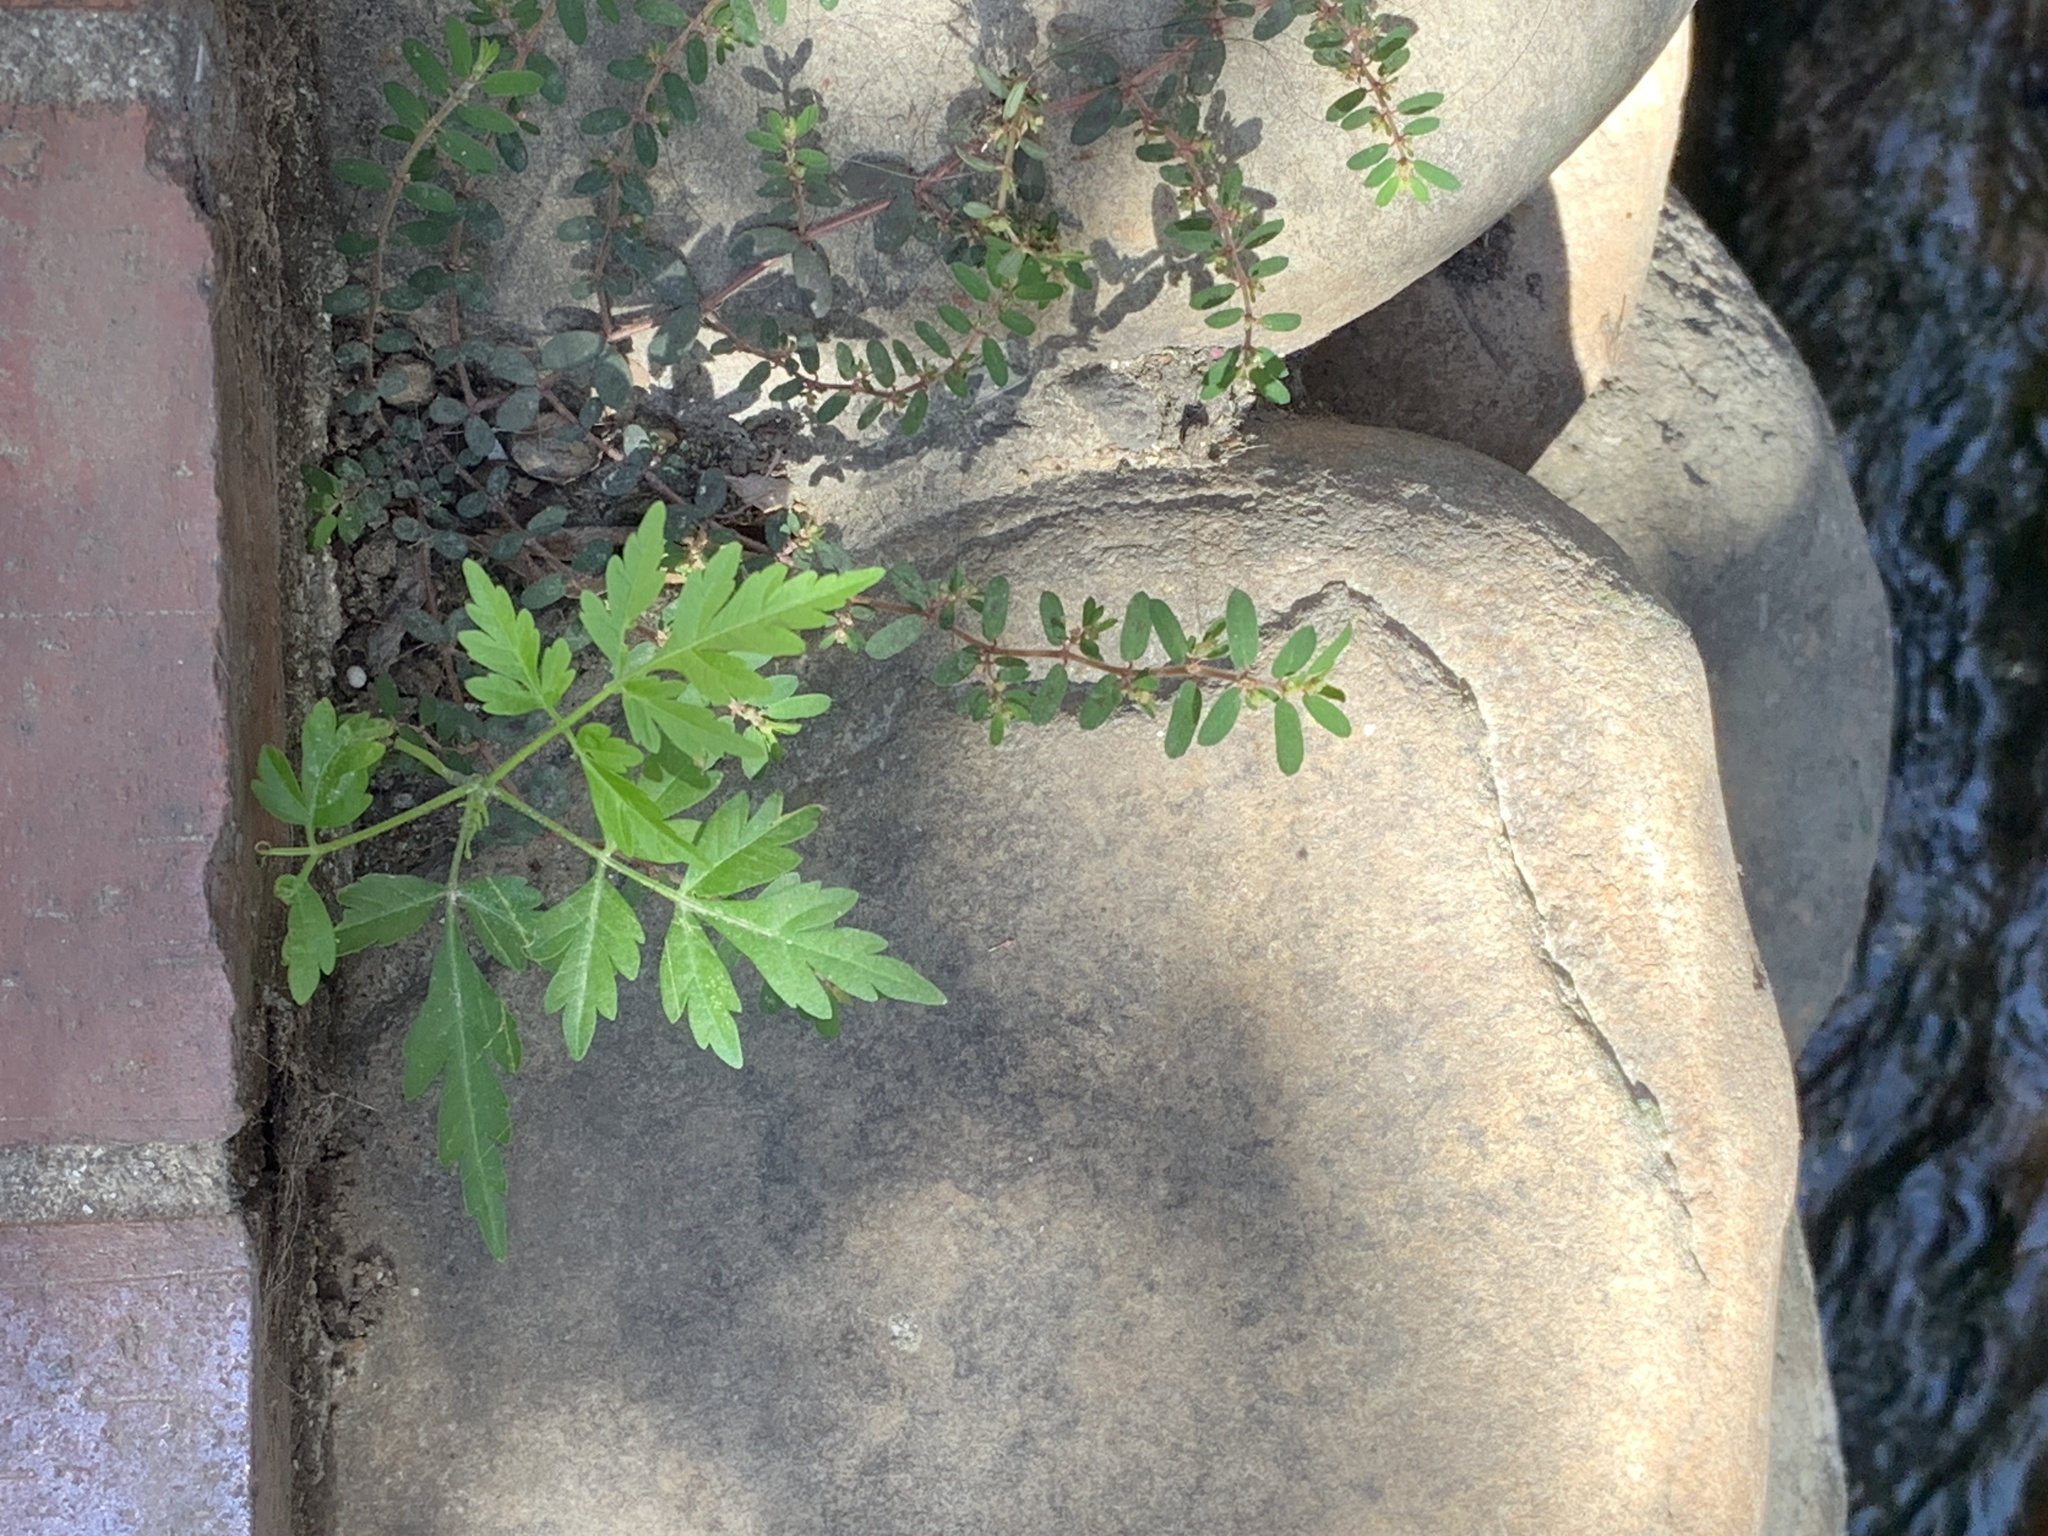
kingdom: Plantae
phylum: Tracheophyta
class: Magnoliopsida
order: Sapindales
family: Meliaceae
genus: Melia
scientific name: Melia azedarach
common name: Chinaberrytree
